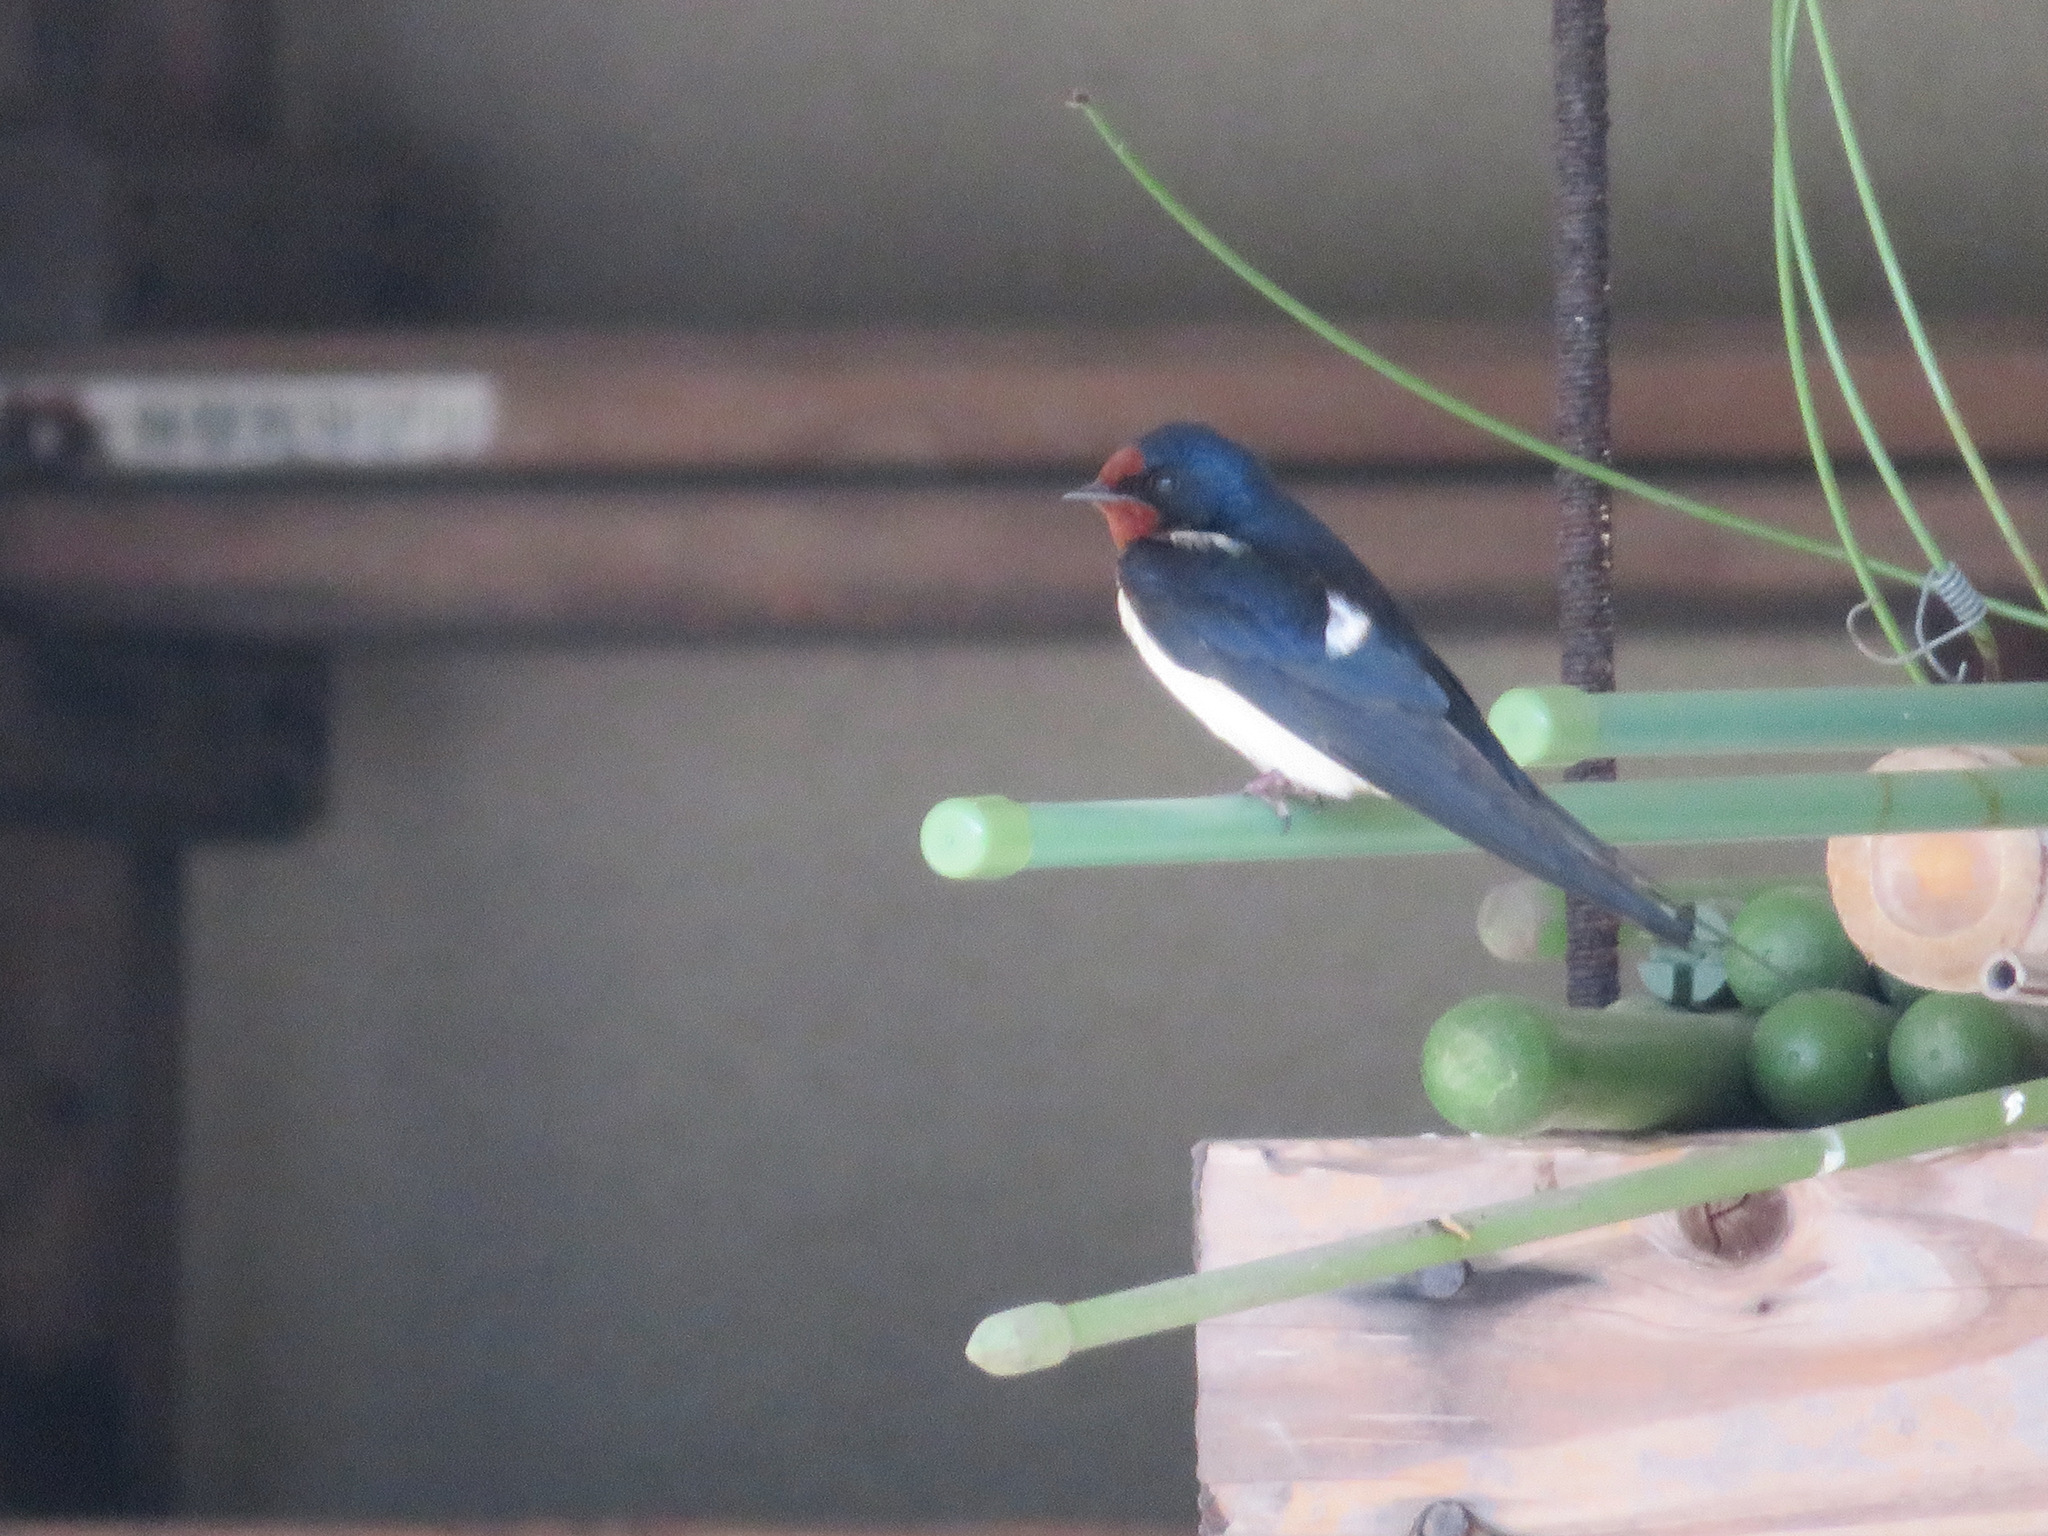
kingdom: Animalia
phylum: Chordata
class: Aves
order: Passeriformes
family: Hirundinidae
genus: Hirundo
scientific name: Hirundo rustica
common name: Barn swallow
